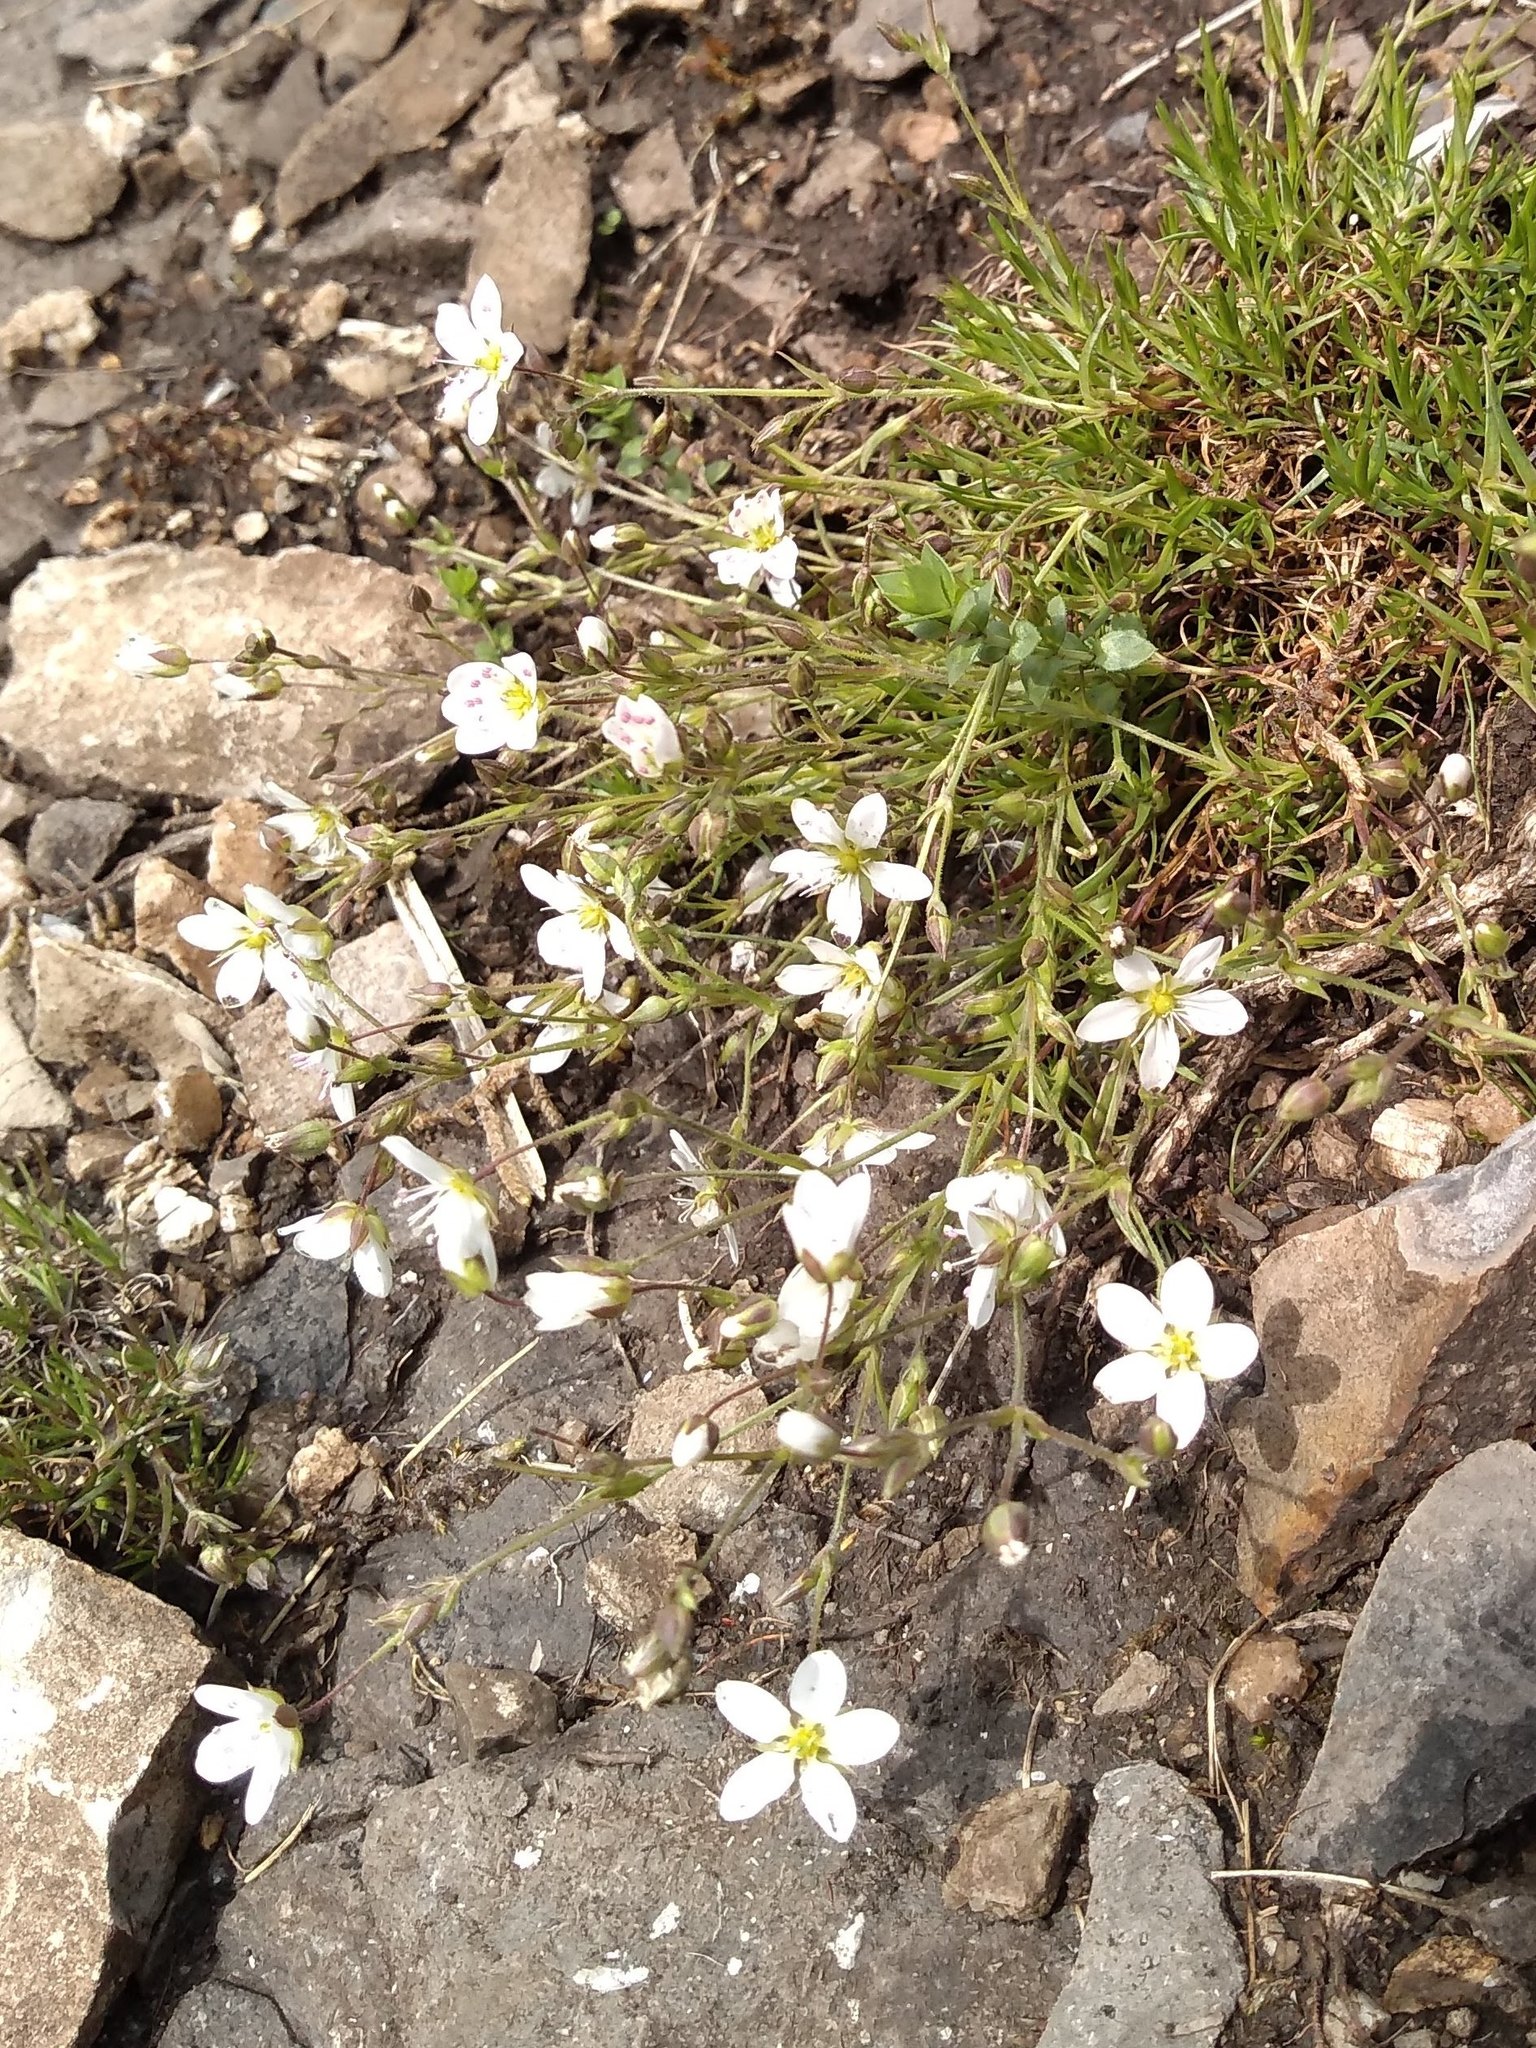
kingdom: Plantae
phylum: Tracheophyta
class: Magnoliopsida
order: Caryophyllales
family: Caryophyllaceae
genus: Sabulina
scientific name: Sabulina verna
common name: Spring sandwort
